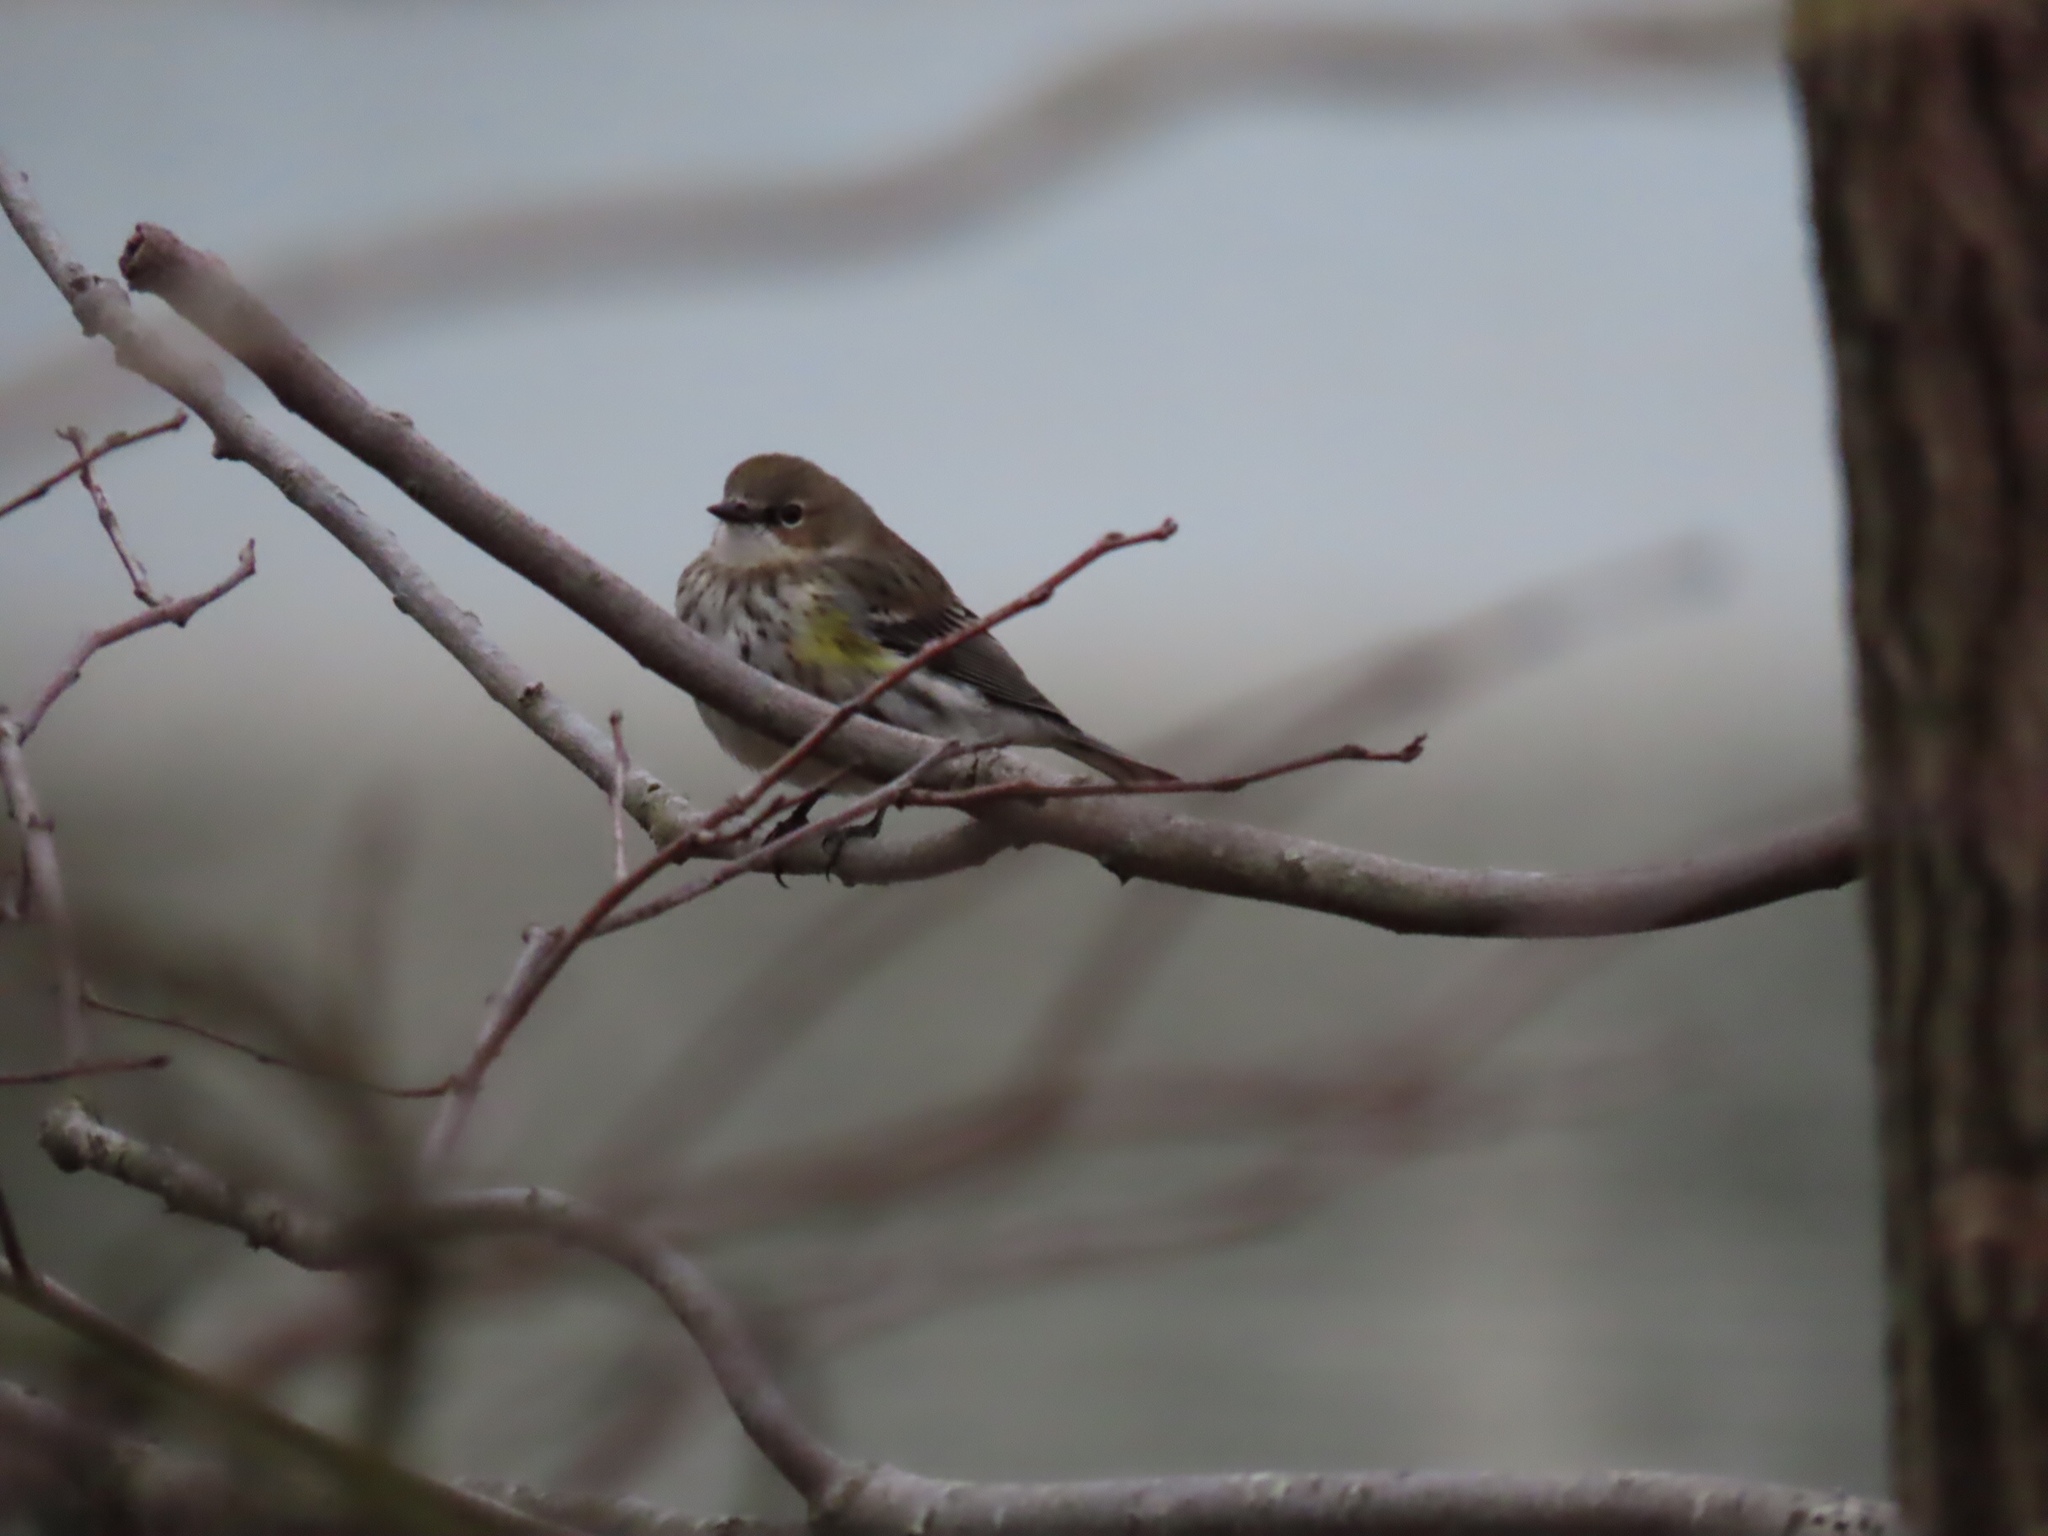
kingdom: Animalia
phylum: Chordata
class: Aves
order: Passeriformes
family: Parulidae
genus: Setophaga
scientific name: Setophaga coronata
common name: Myrtle warbler
